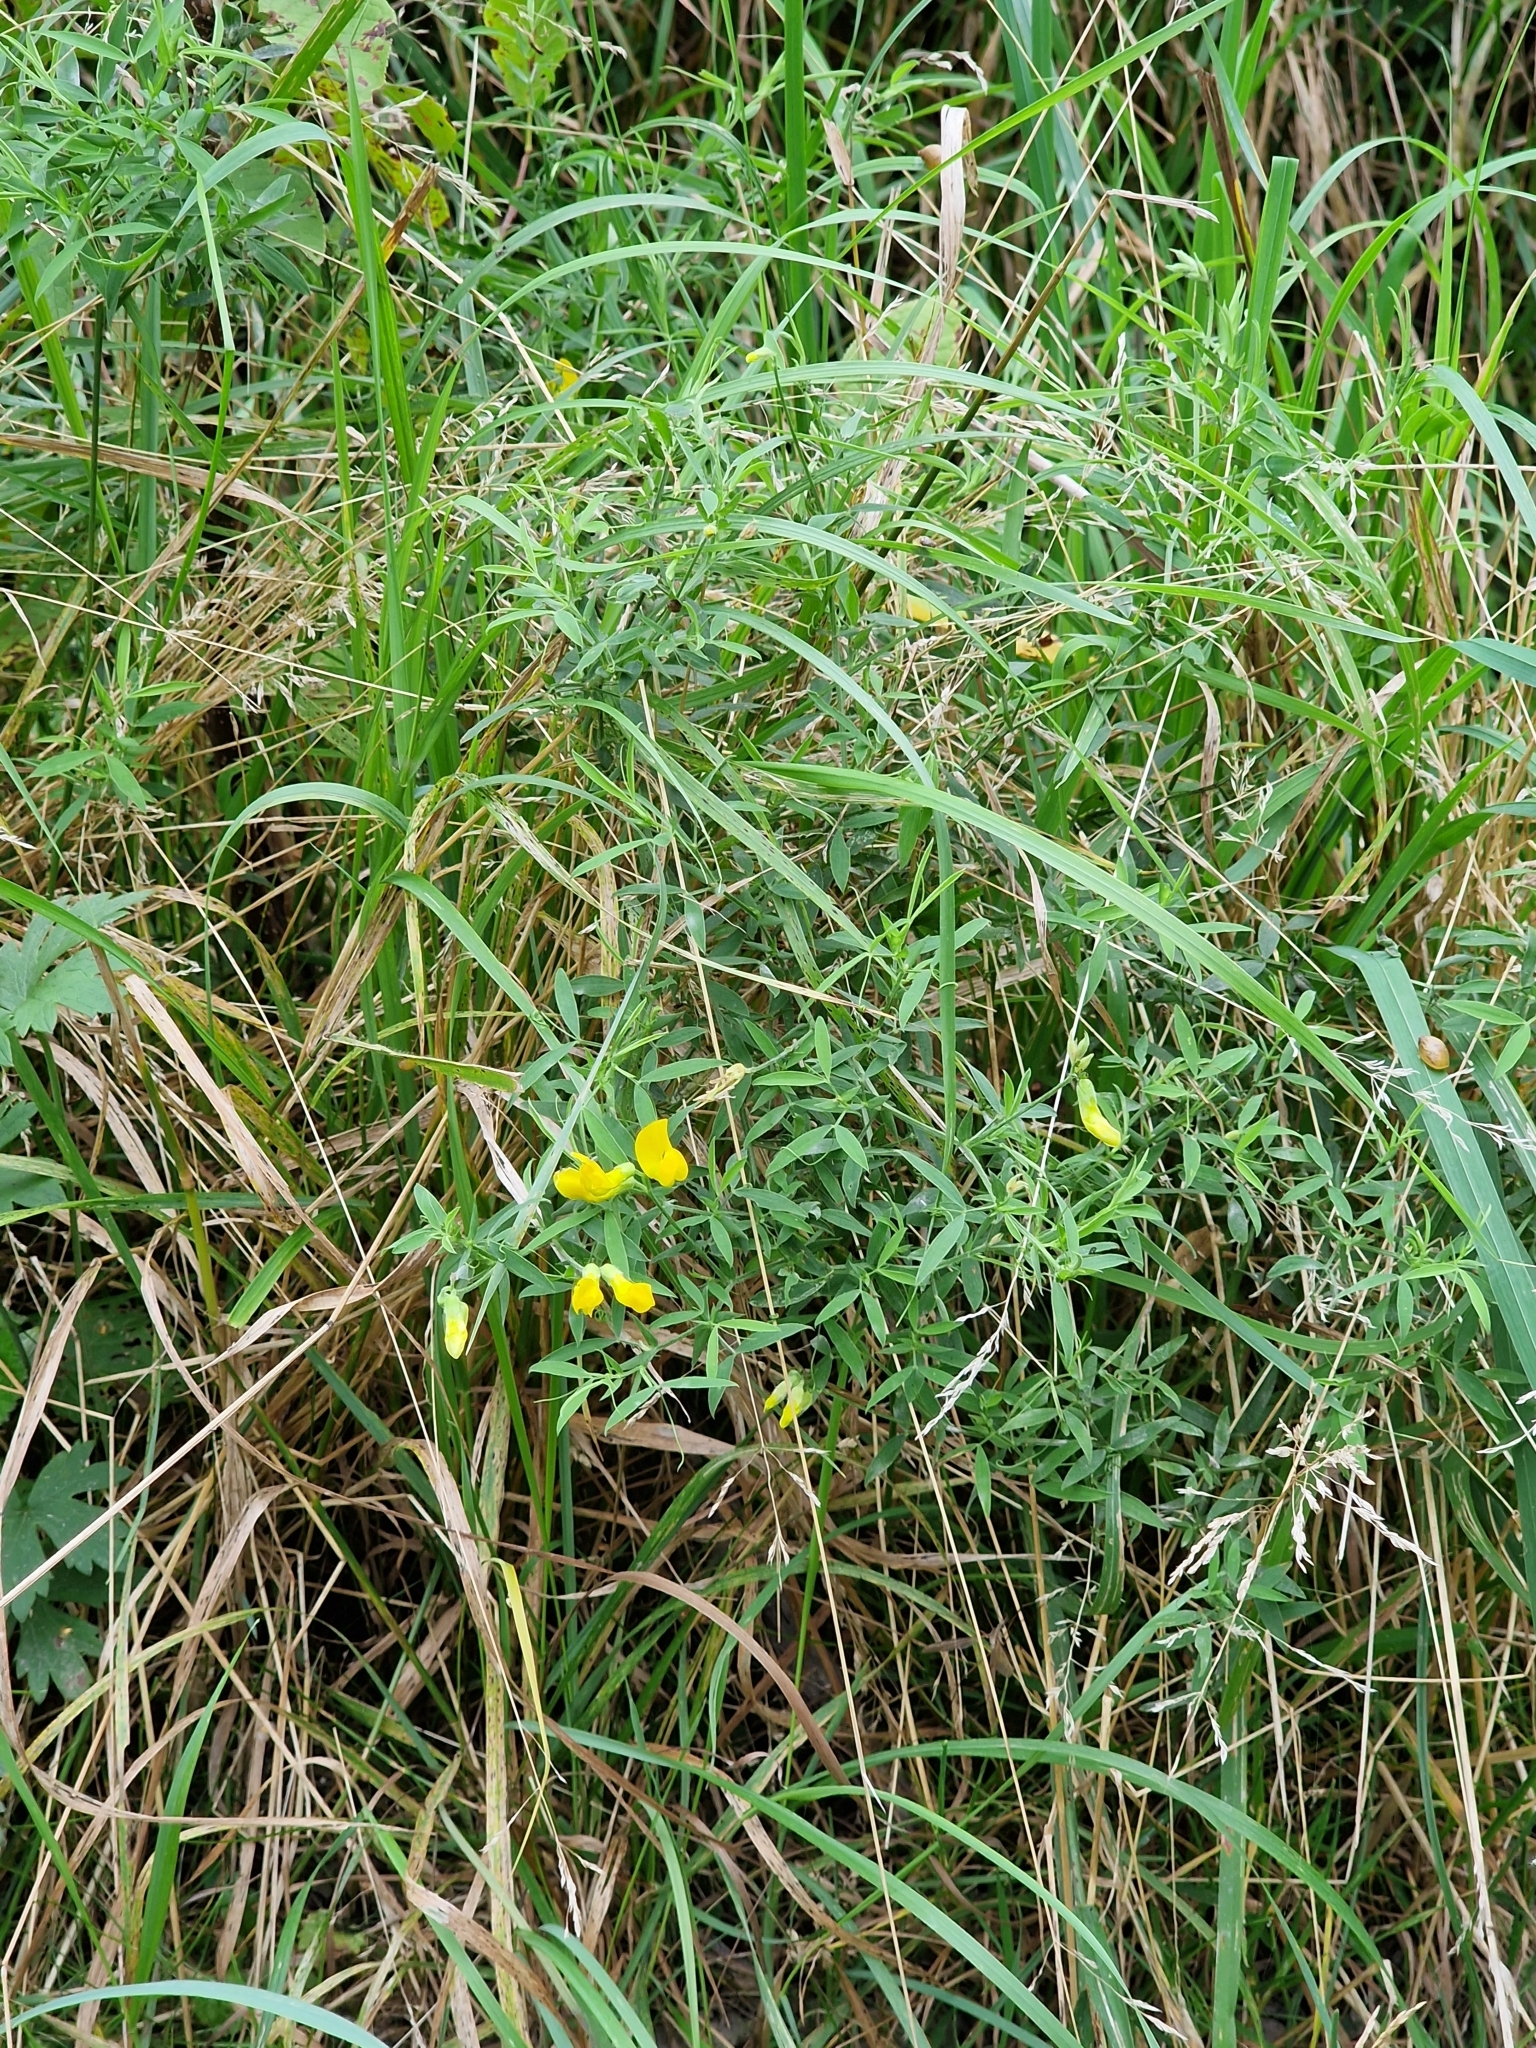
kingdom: Plantae
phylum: Tracheophyta
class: Magnoliopsida
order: Fabales
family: Fabaceae
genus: Lathyrus
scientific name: Lathyrus pratensis
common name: Meadow vetchling
